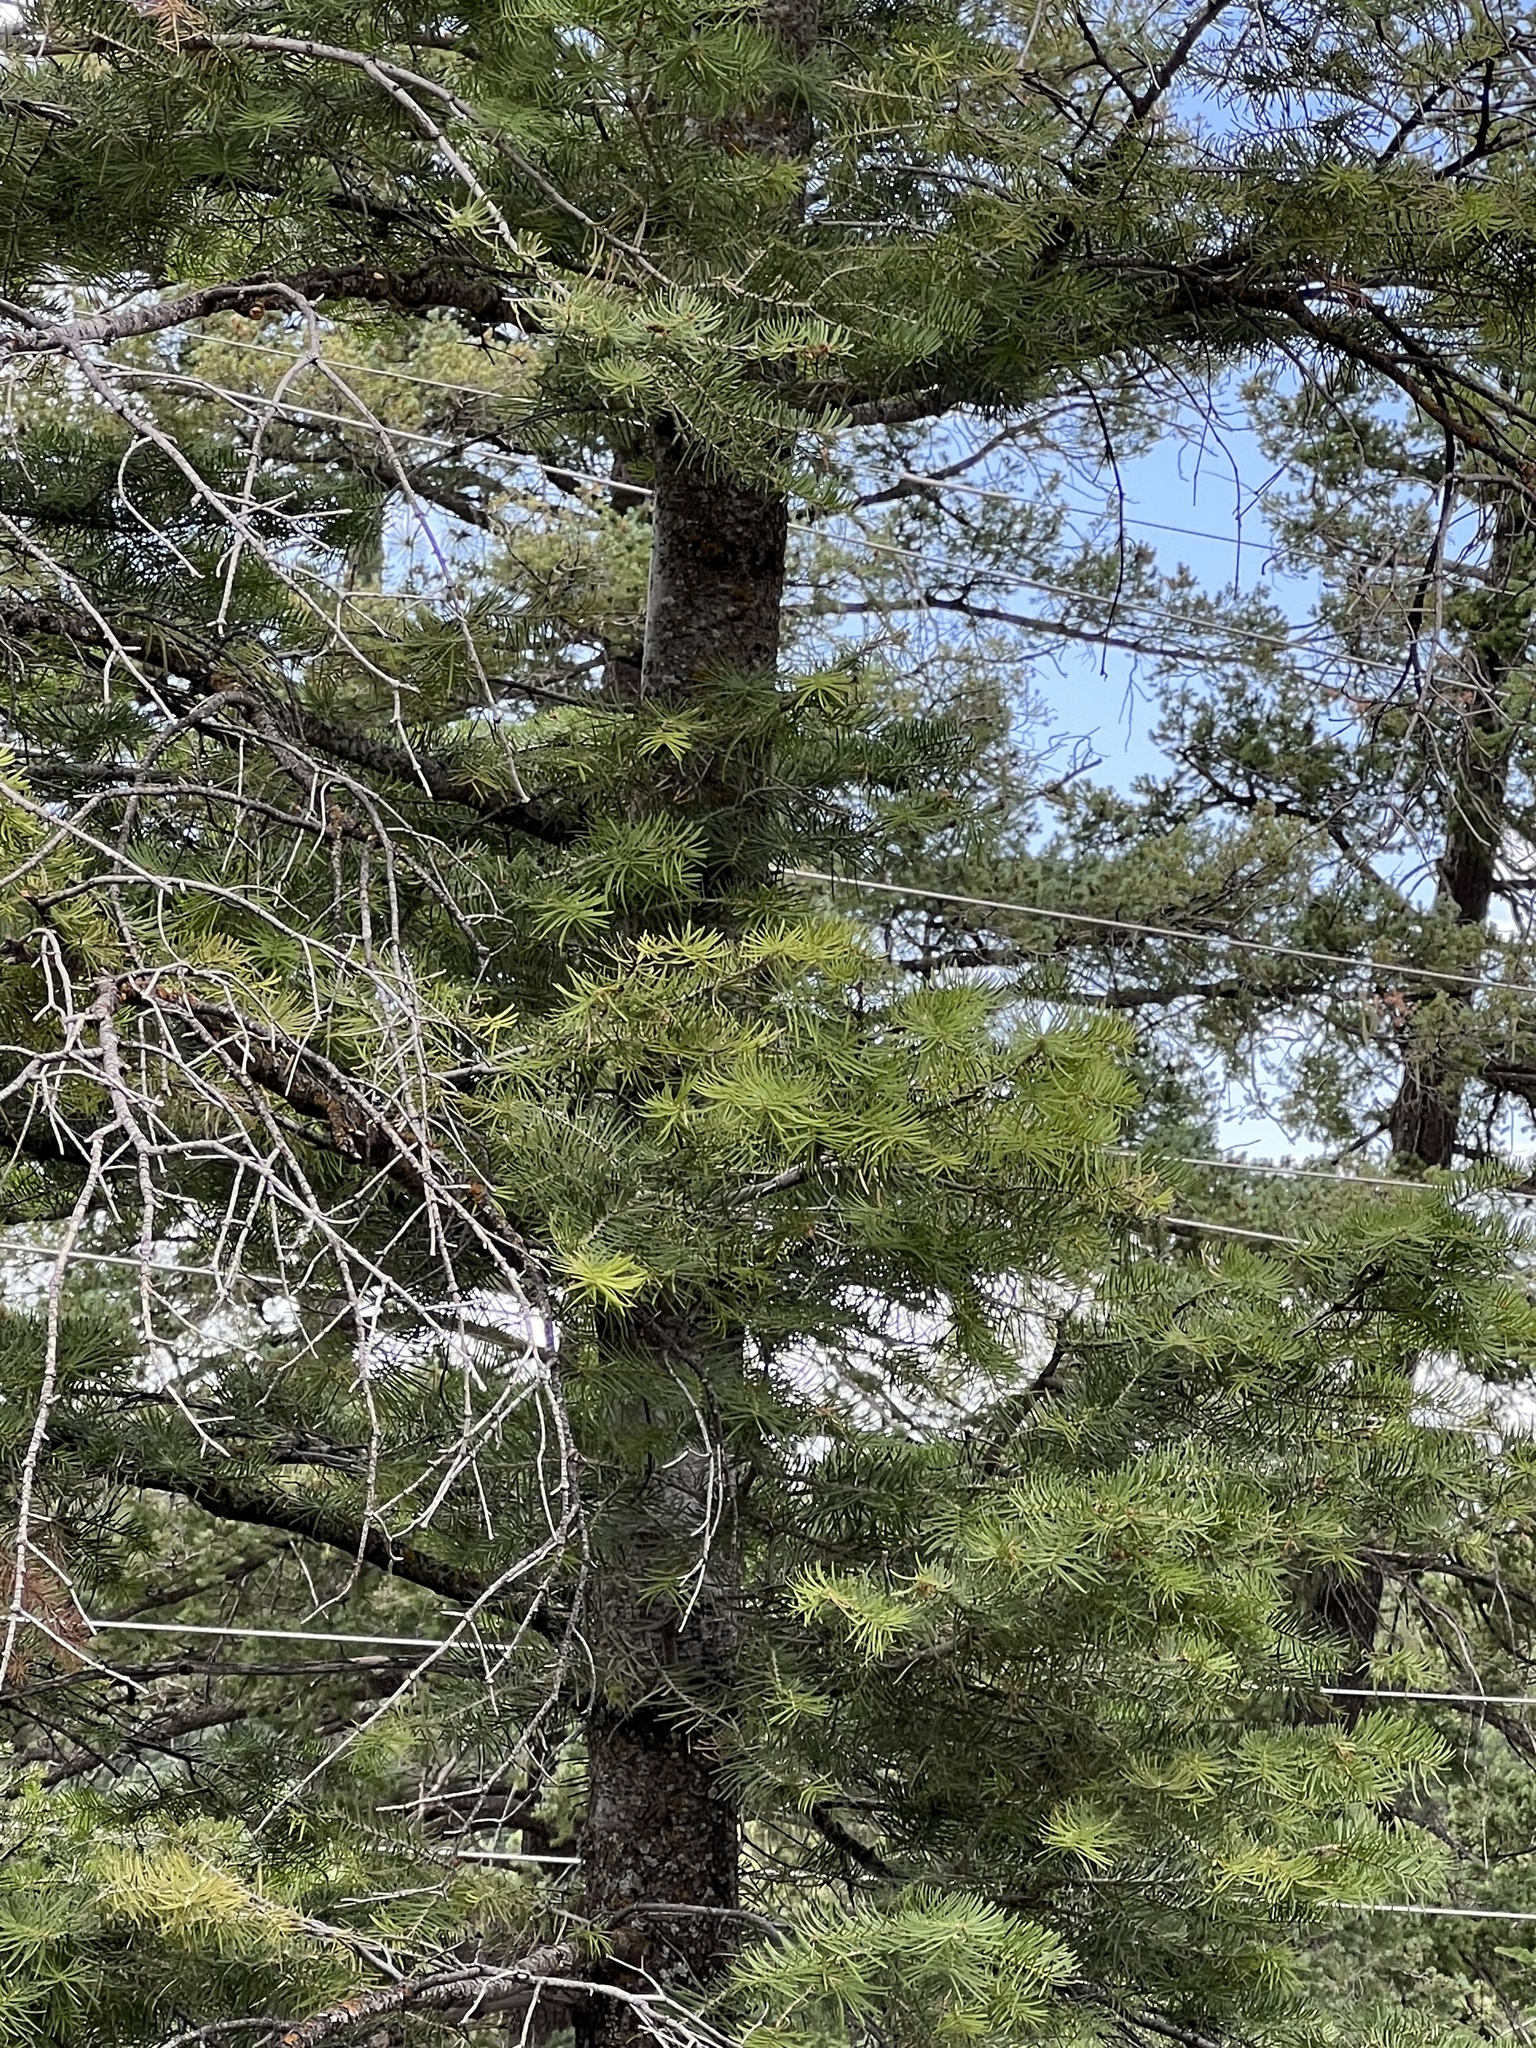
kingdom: Plantae
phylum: Tracheophyta
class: Pinopsida
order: Pinales
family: Pinaceae
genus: Abies
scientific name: Abies concolor
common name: Colorado fir
